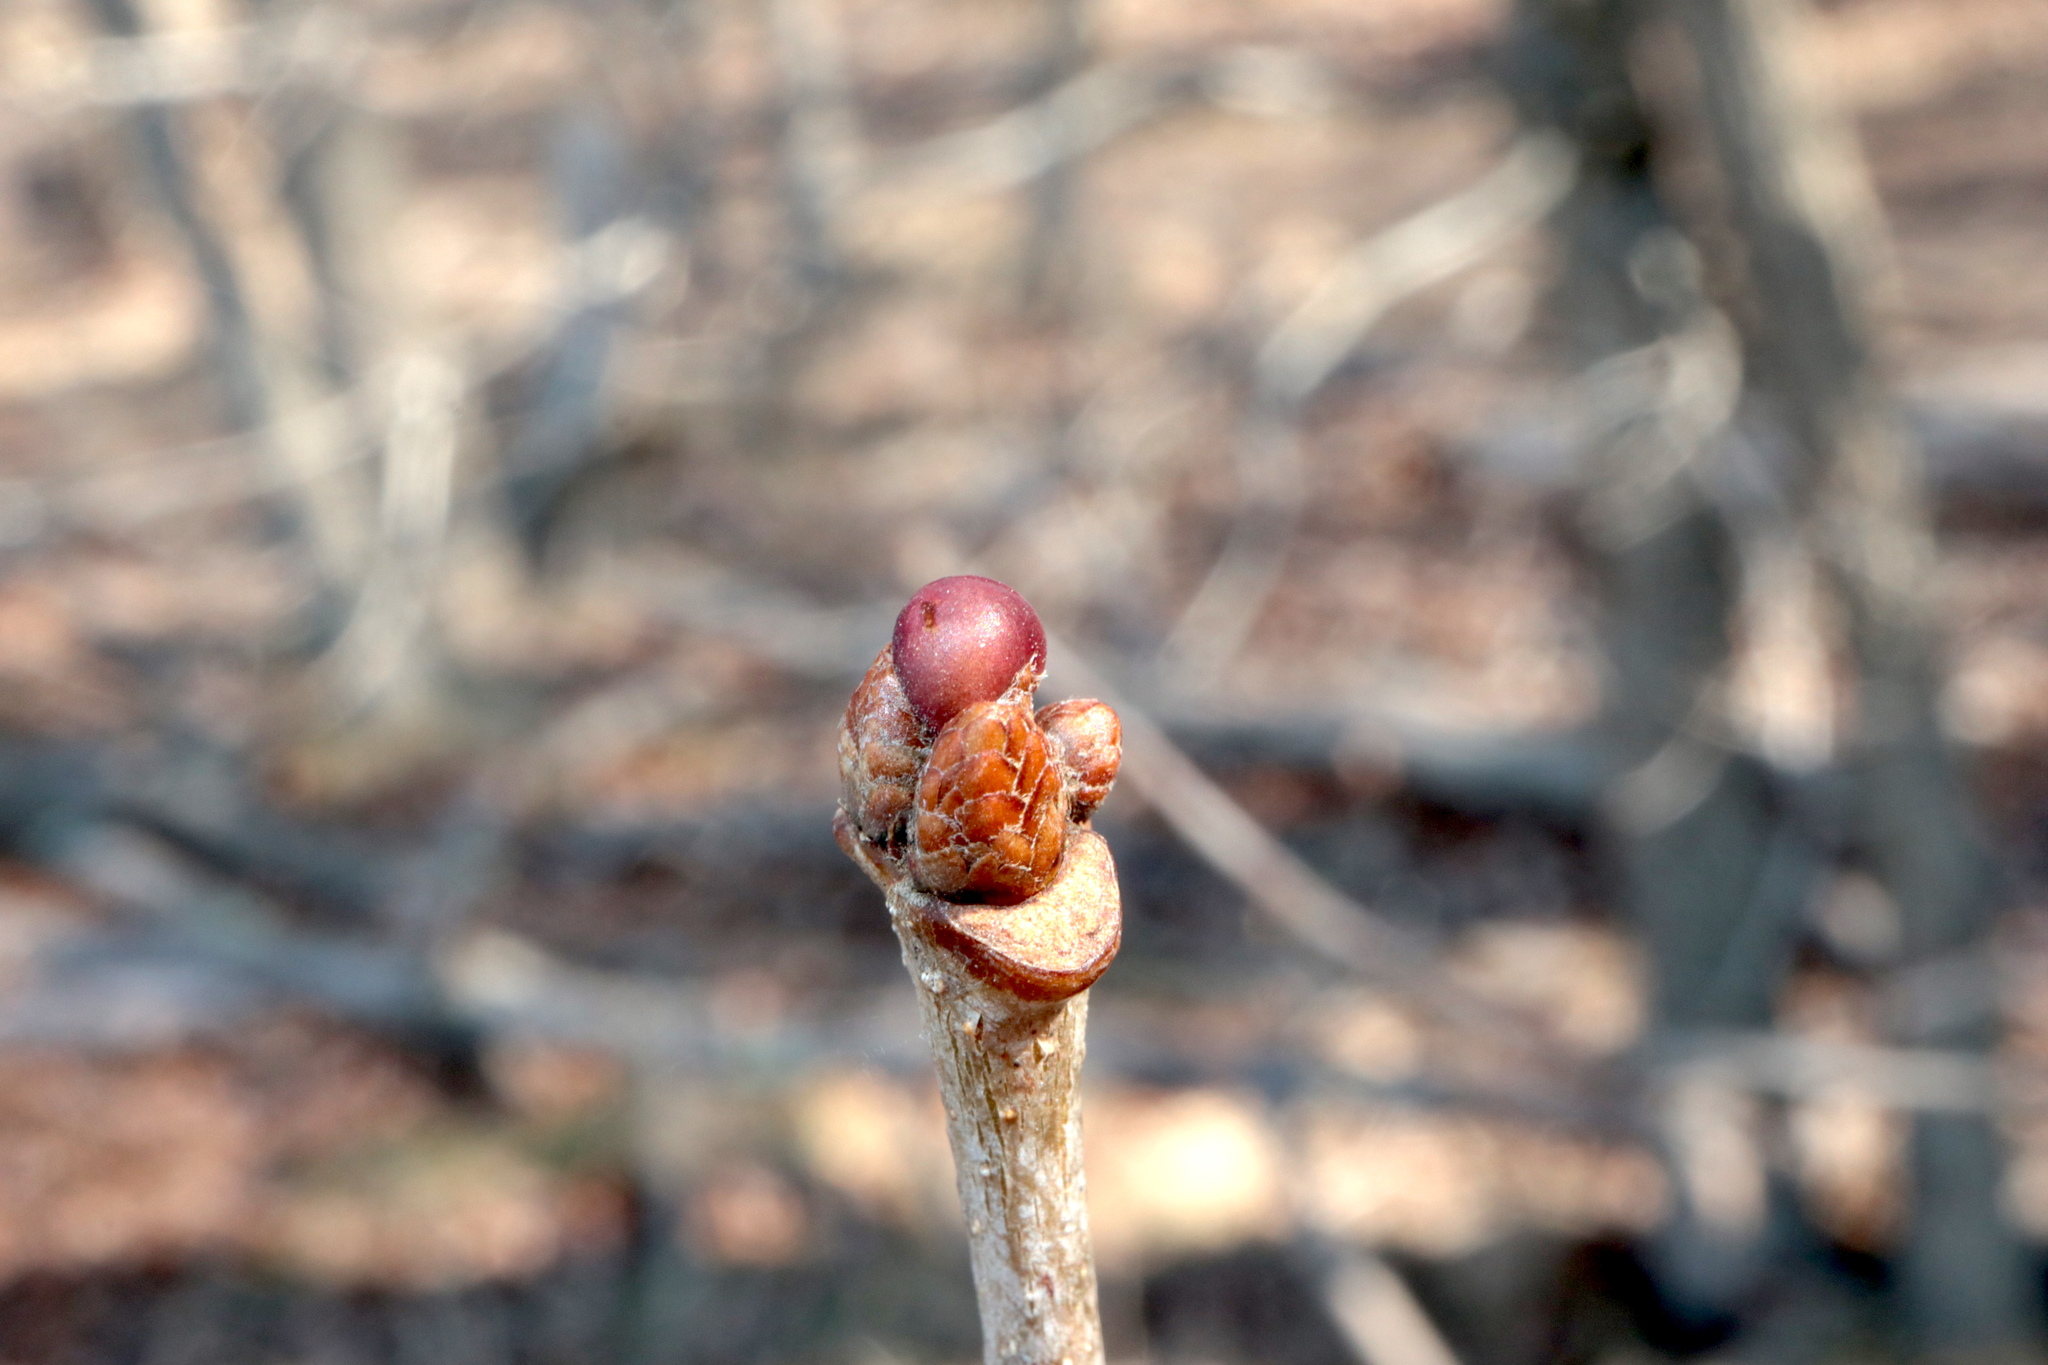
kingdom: Animalia
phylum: Arthropoda
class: Insecta
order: Hymenoptera
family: Cynipidae
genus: Neuroterus
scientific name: Neuroterus
